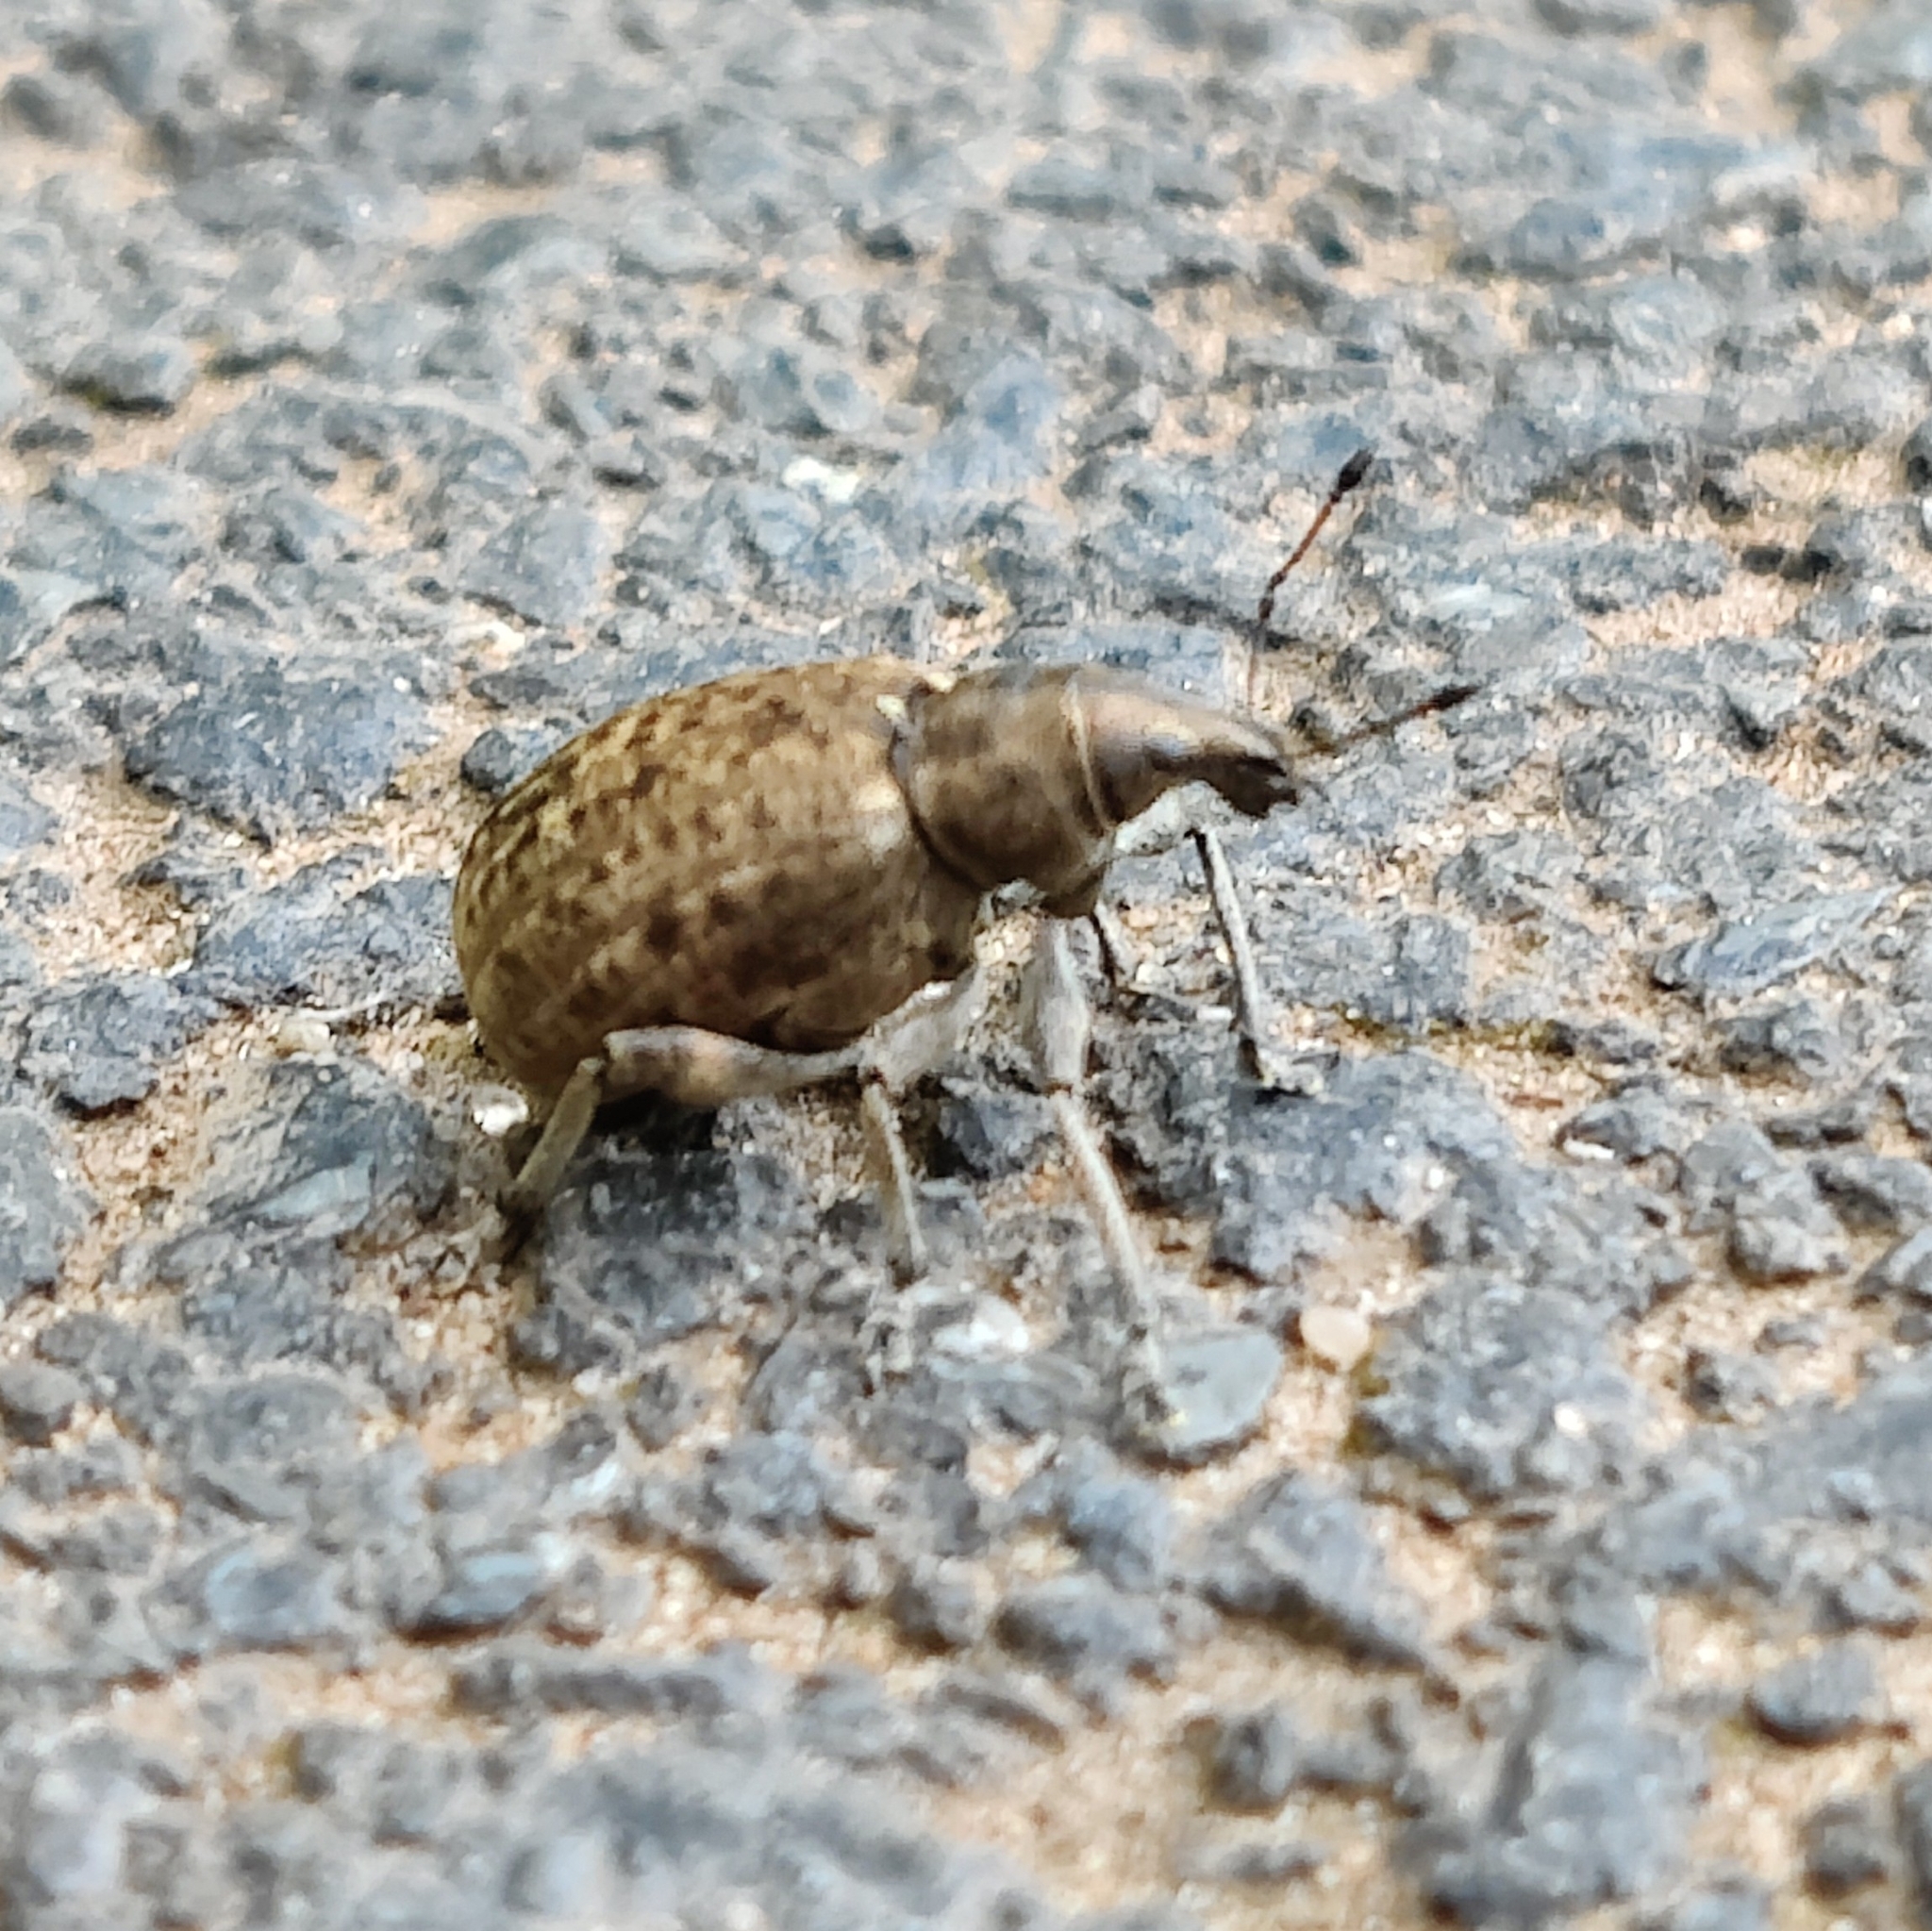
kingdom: Animalia
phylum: Arthropoda
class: Insecta
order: Coleoptera
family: Curculionidae
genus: Liophloeus
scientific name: Liophloeus tessulatus
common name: Weevil
